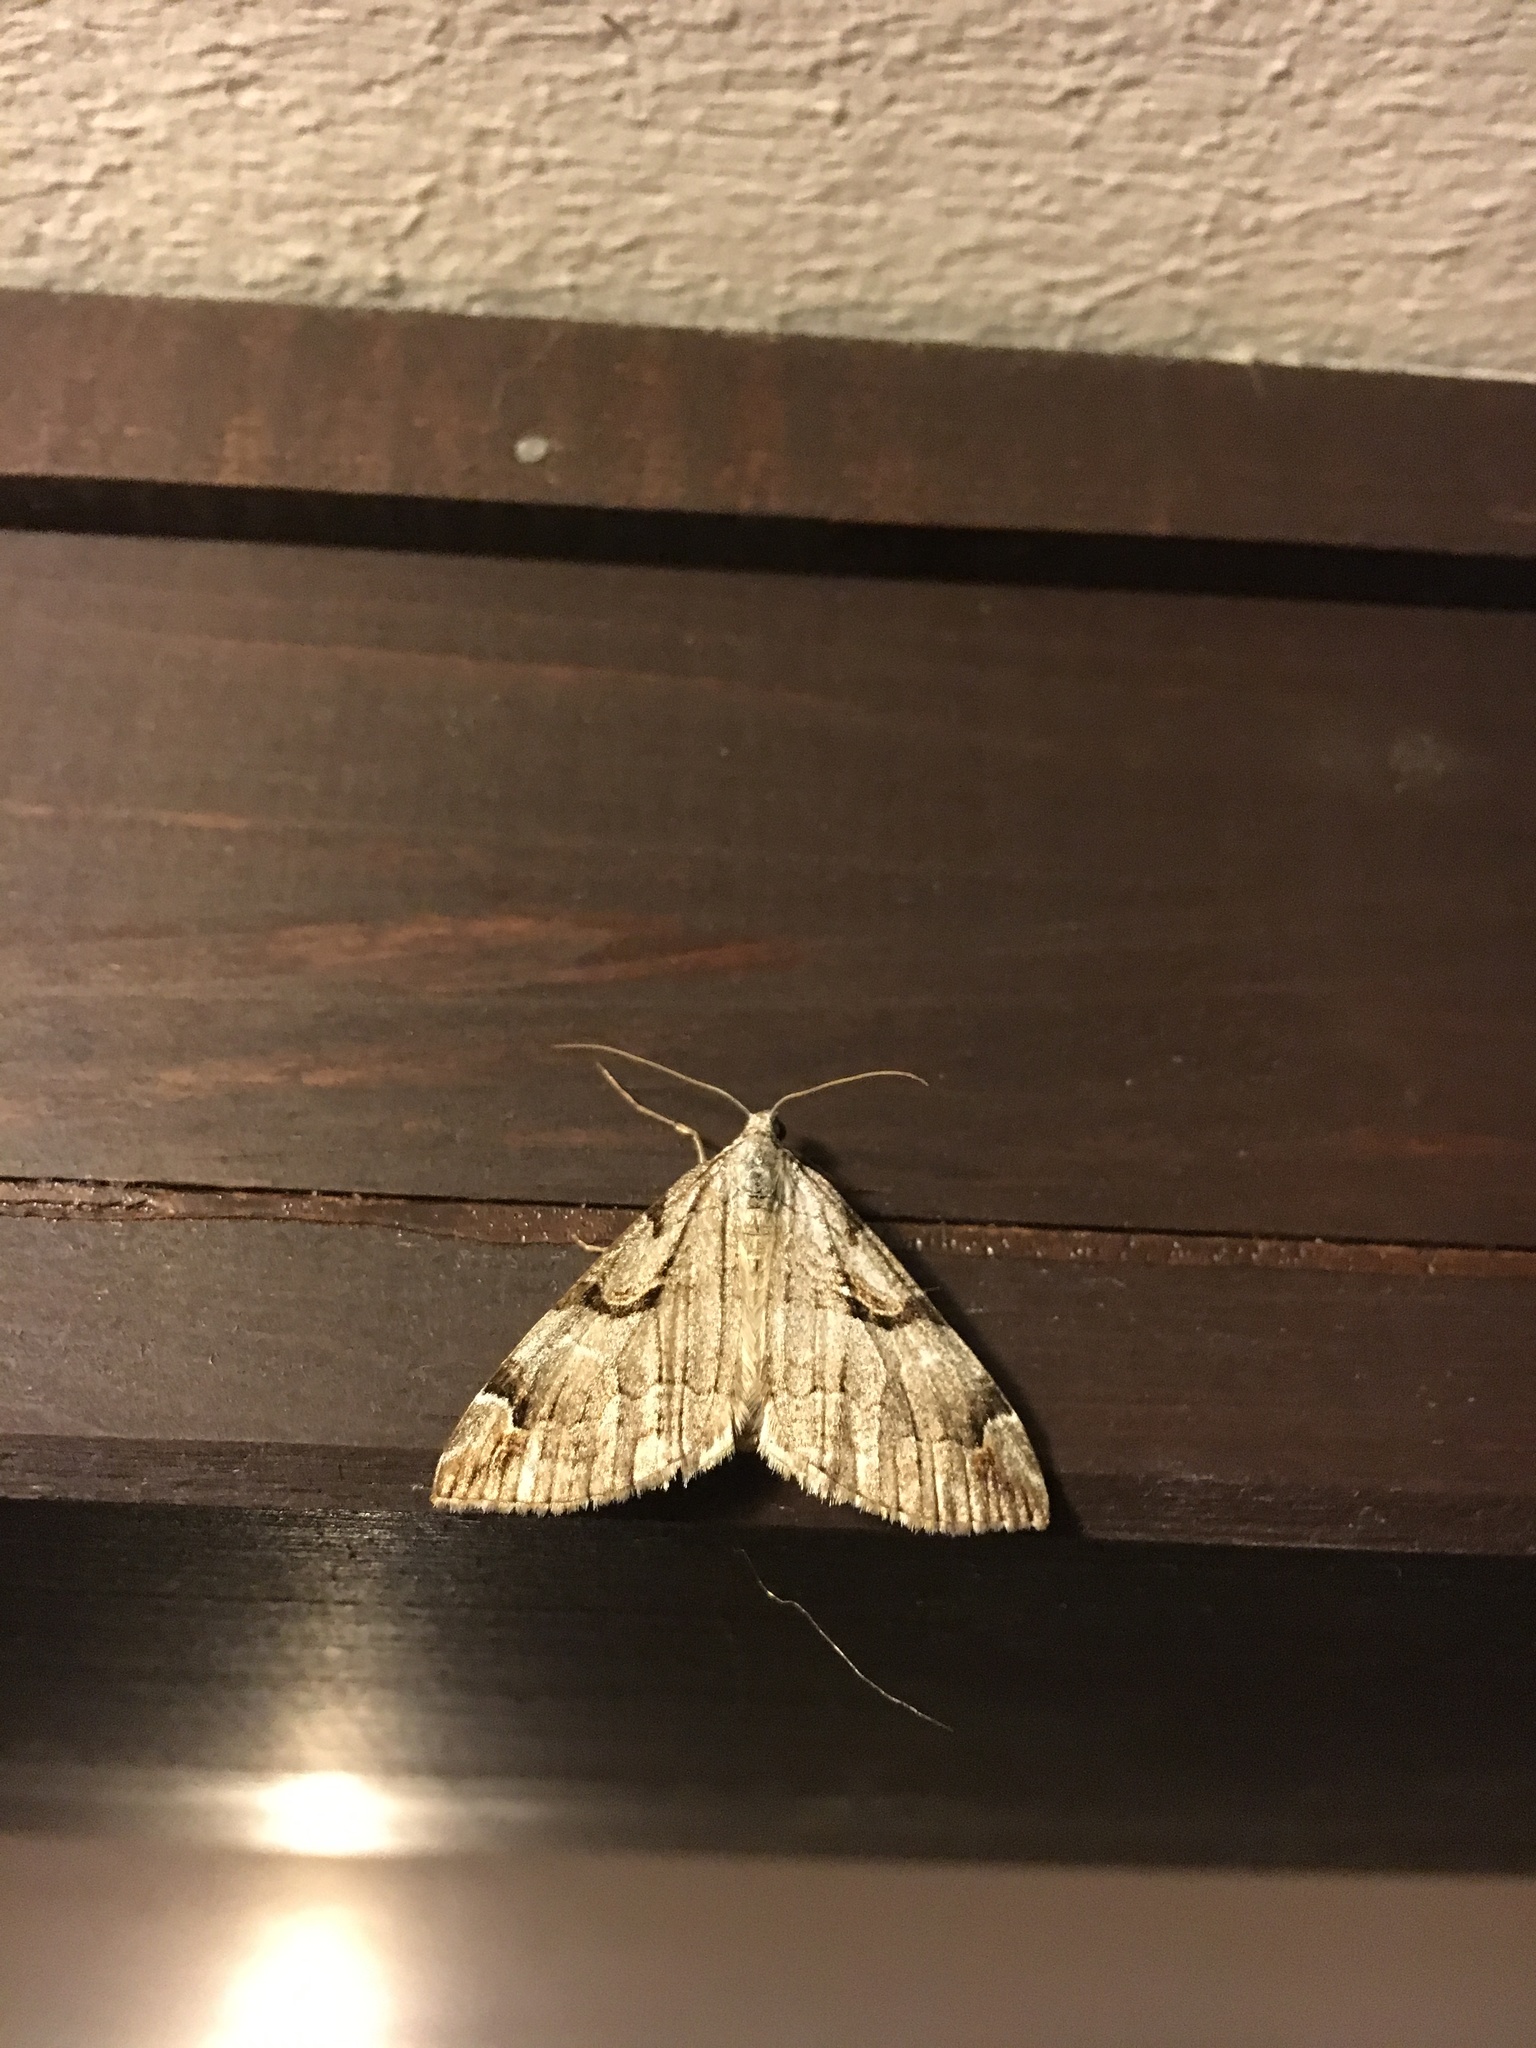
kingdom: Animalia
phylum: Arthropoda
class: Insecta
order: Lepidoptera
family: Geometridae
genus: Aplocera
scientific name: Aplocera plagiata
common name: Treble-bar
